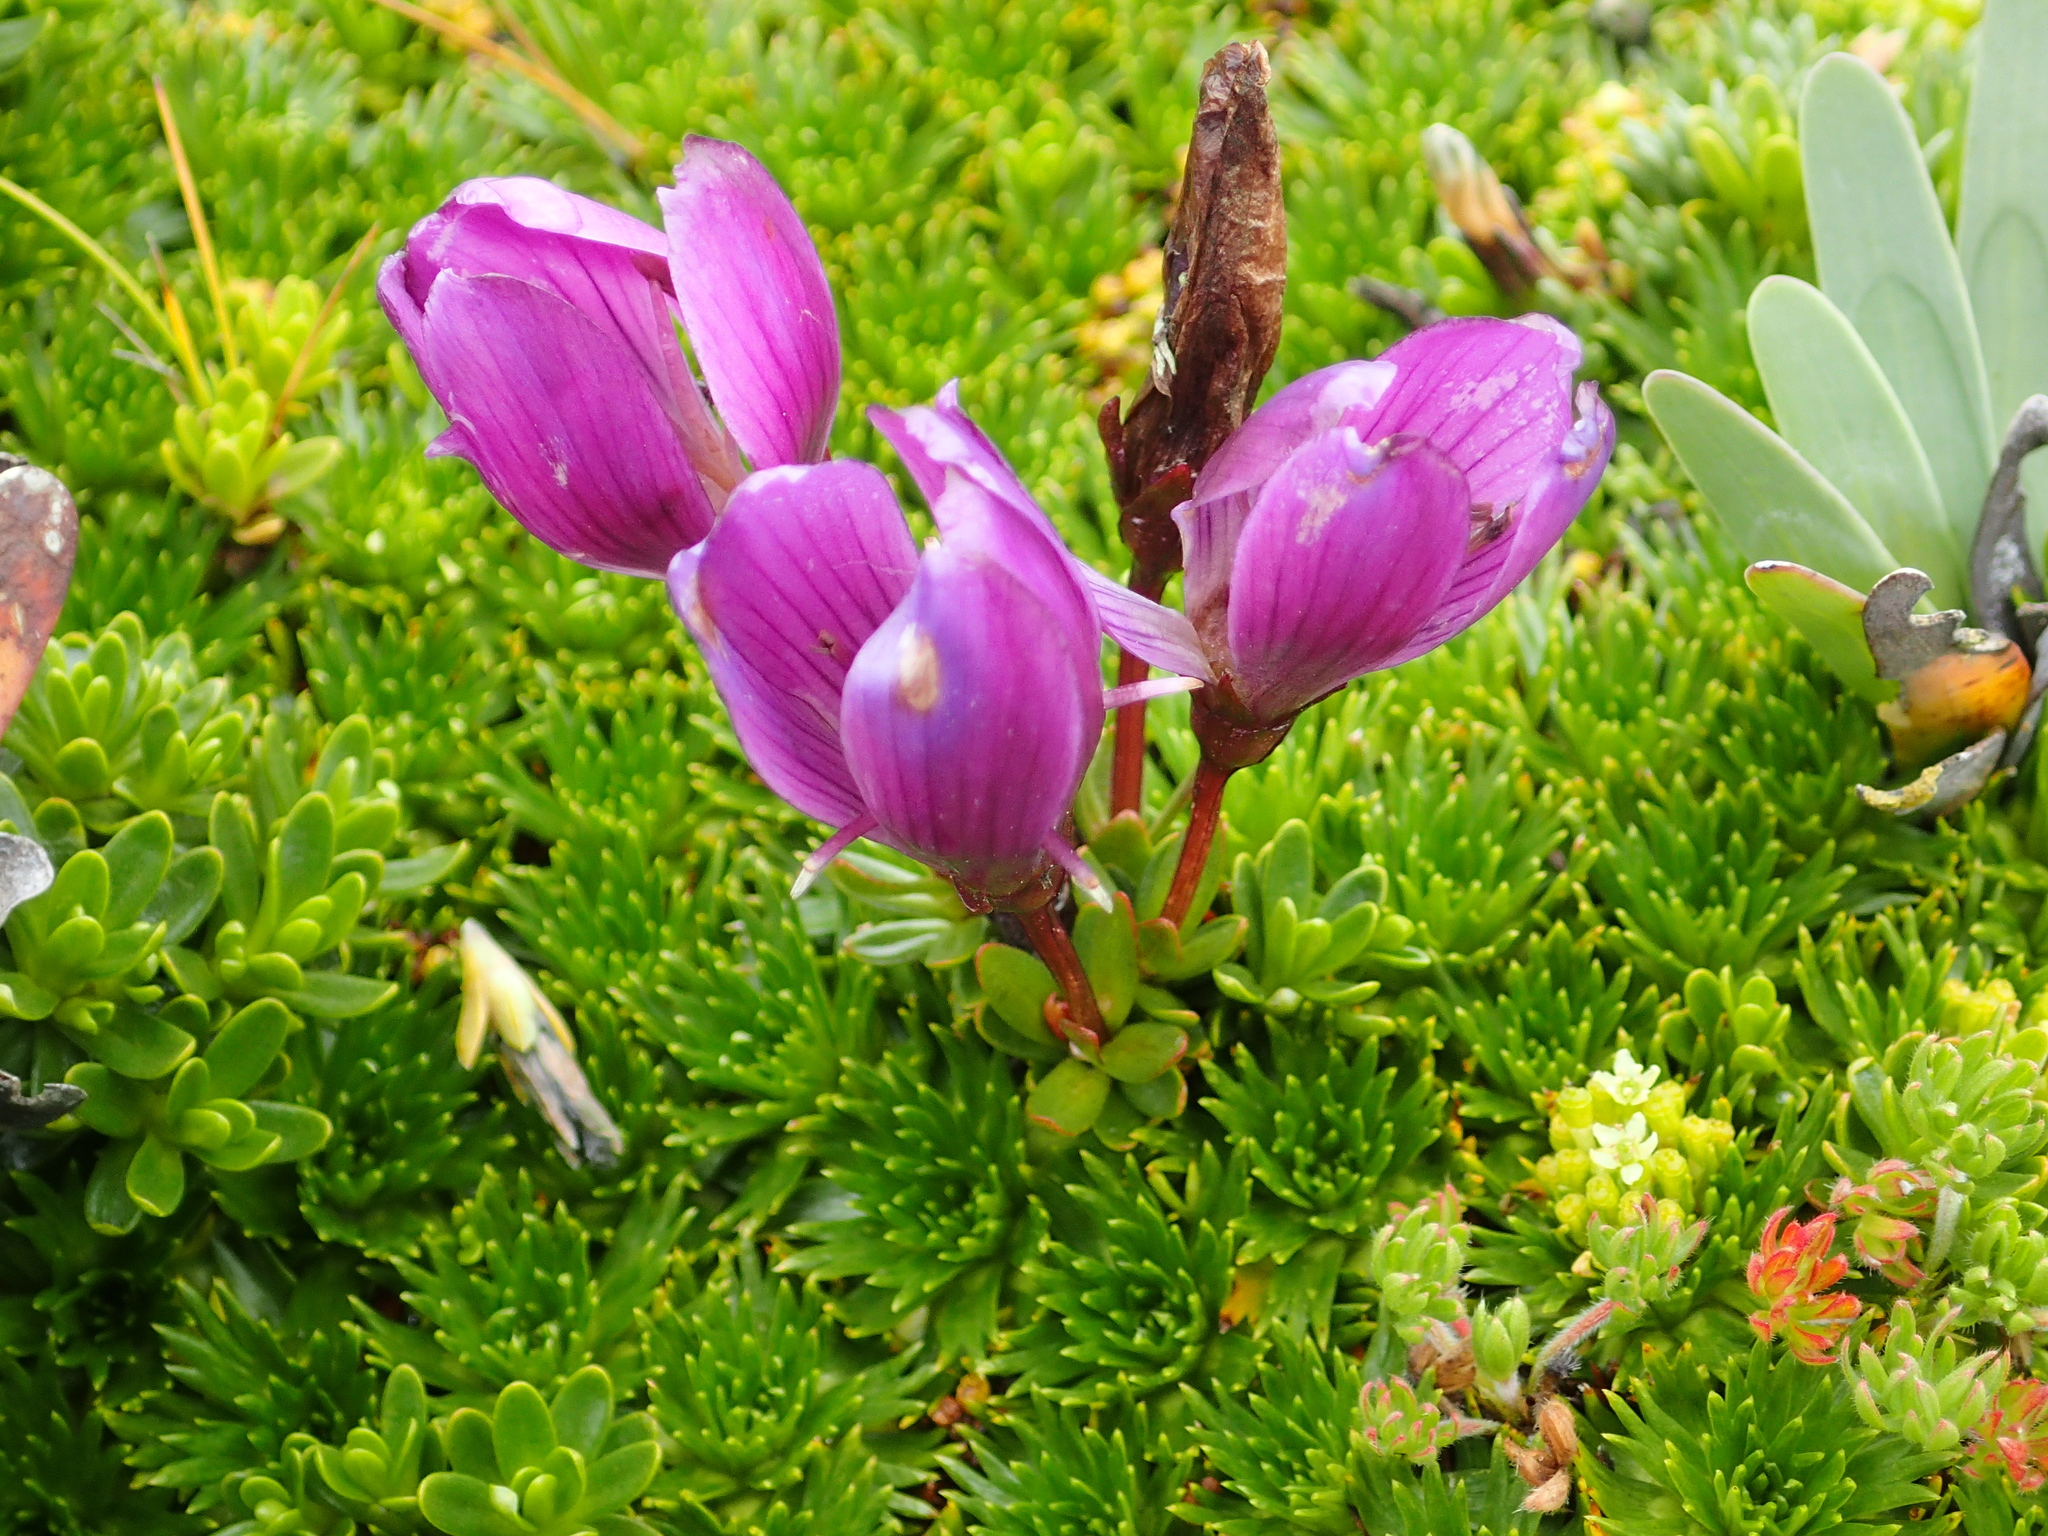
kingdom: Plantae
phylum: Tracheophyta
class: Magnoliopsida
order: Gentianales
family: Gentianaceae
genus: Gentianella
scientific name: Gentianella cerastioides
